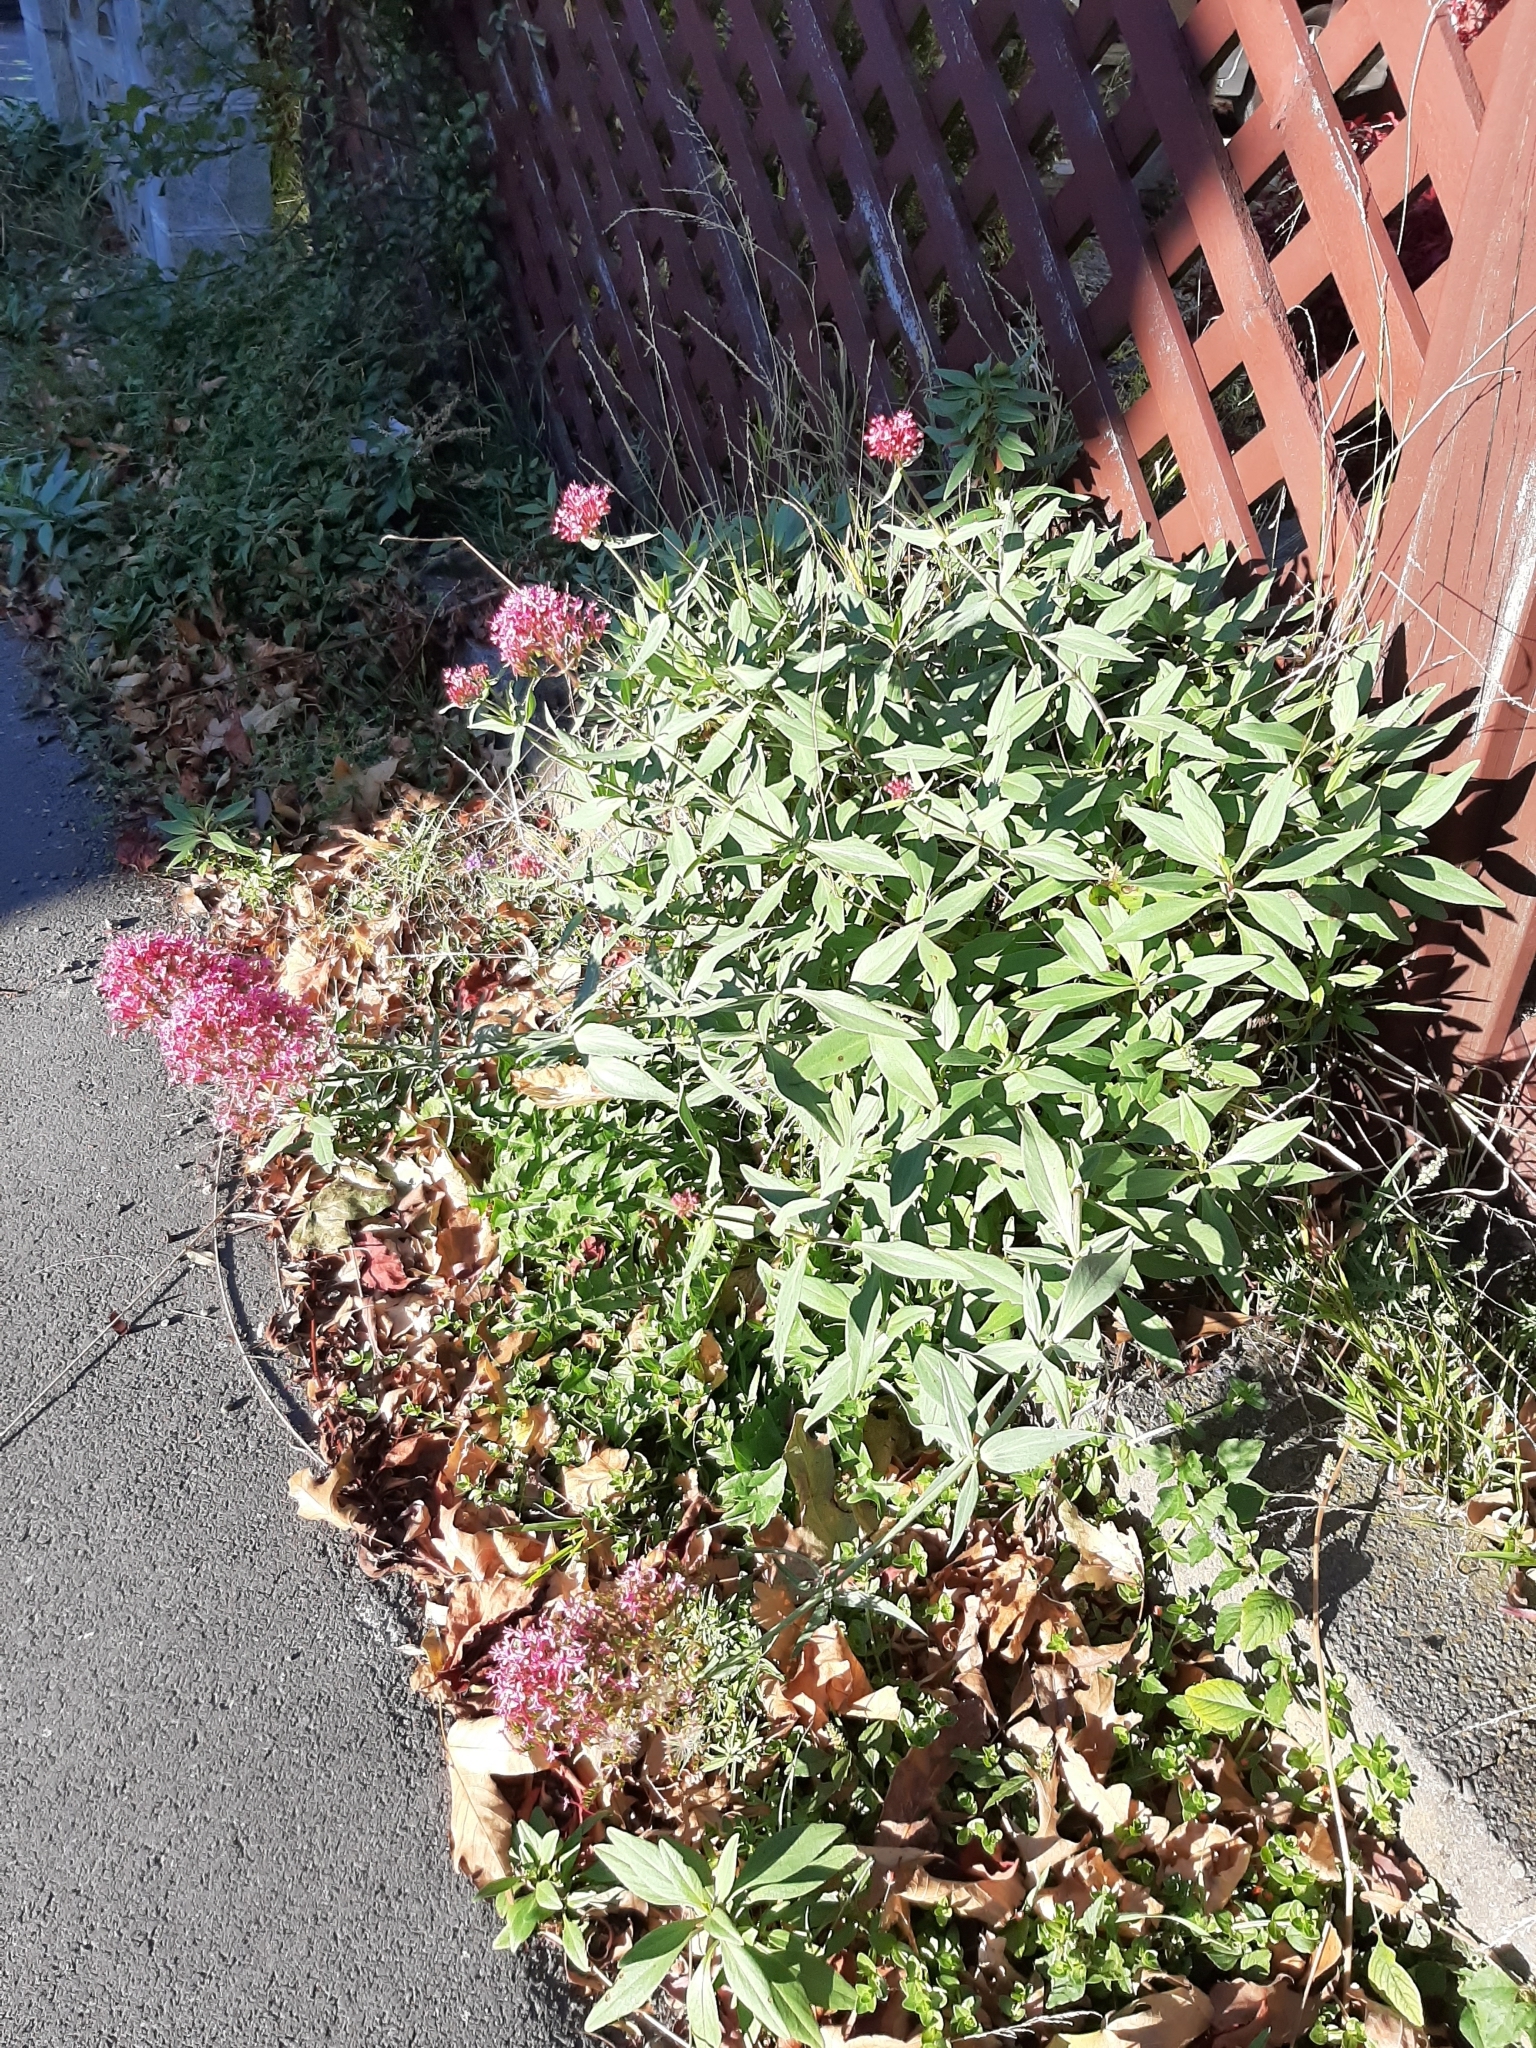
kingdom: Plantae
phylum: Tracheophyta
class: Magnoliopsida
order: Dipsacales
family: Caprifoliaceae
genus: Centranthus
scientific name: Centranthus ruber
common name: Red valerian
